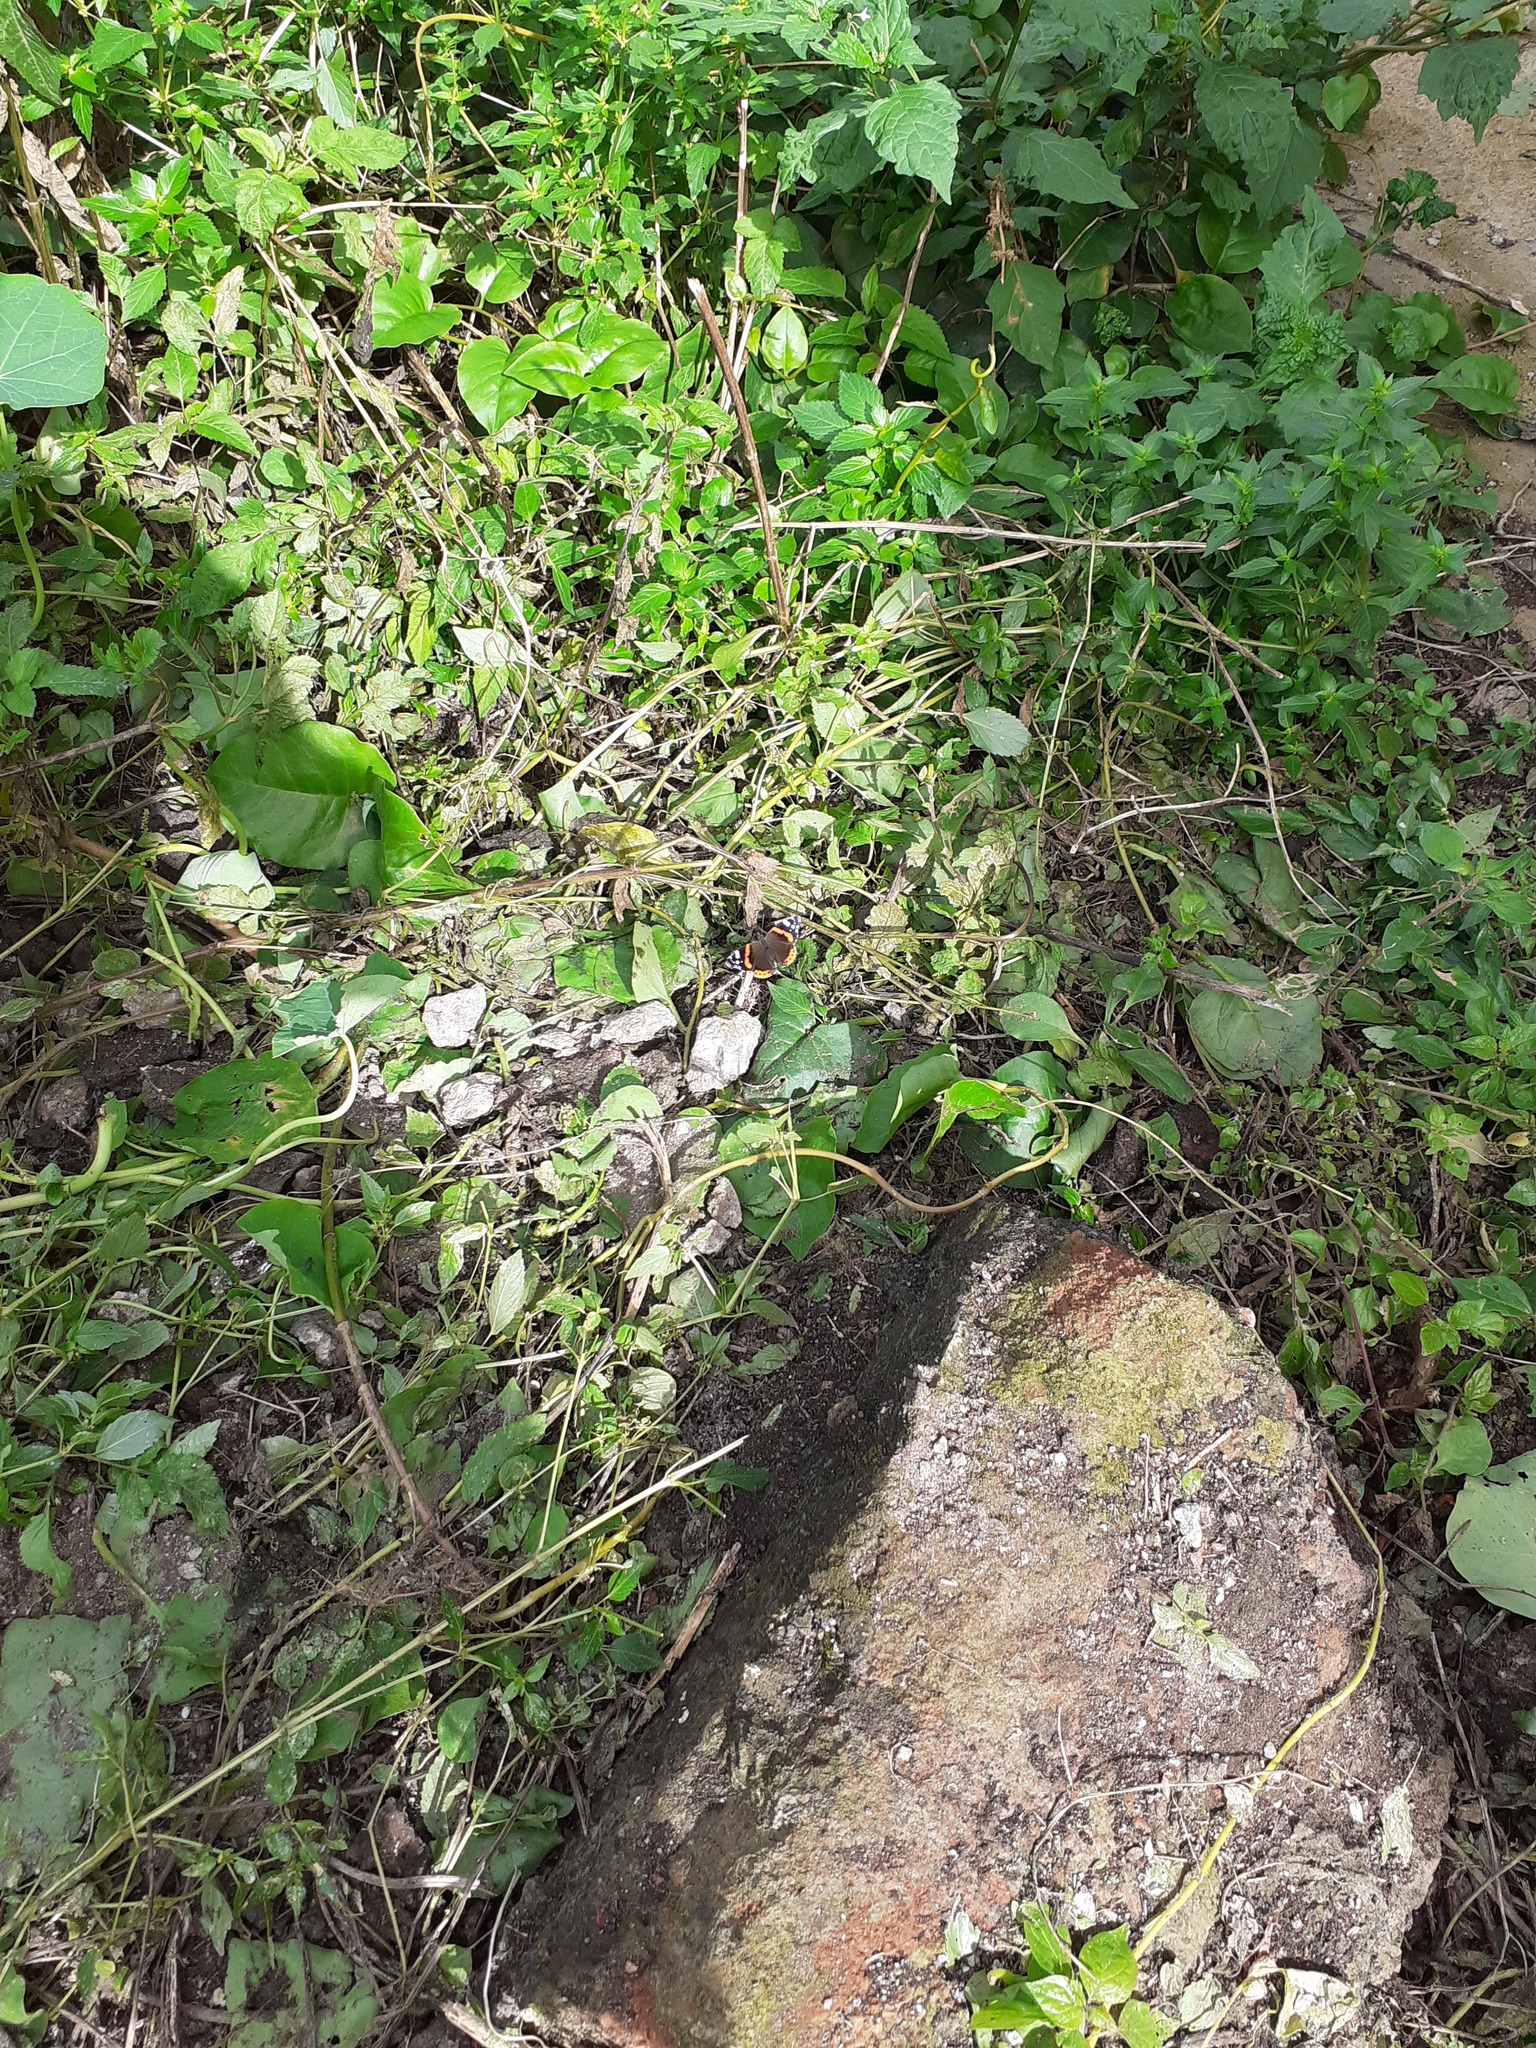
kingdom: Animalia
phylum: Arthropoda
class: Insecta
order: Lepidoptera
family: Nymphalidae
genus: Vanessa
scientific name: Vanessa atalanta
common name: Red admiral
